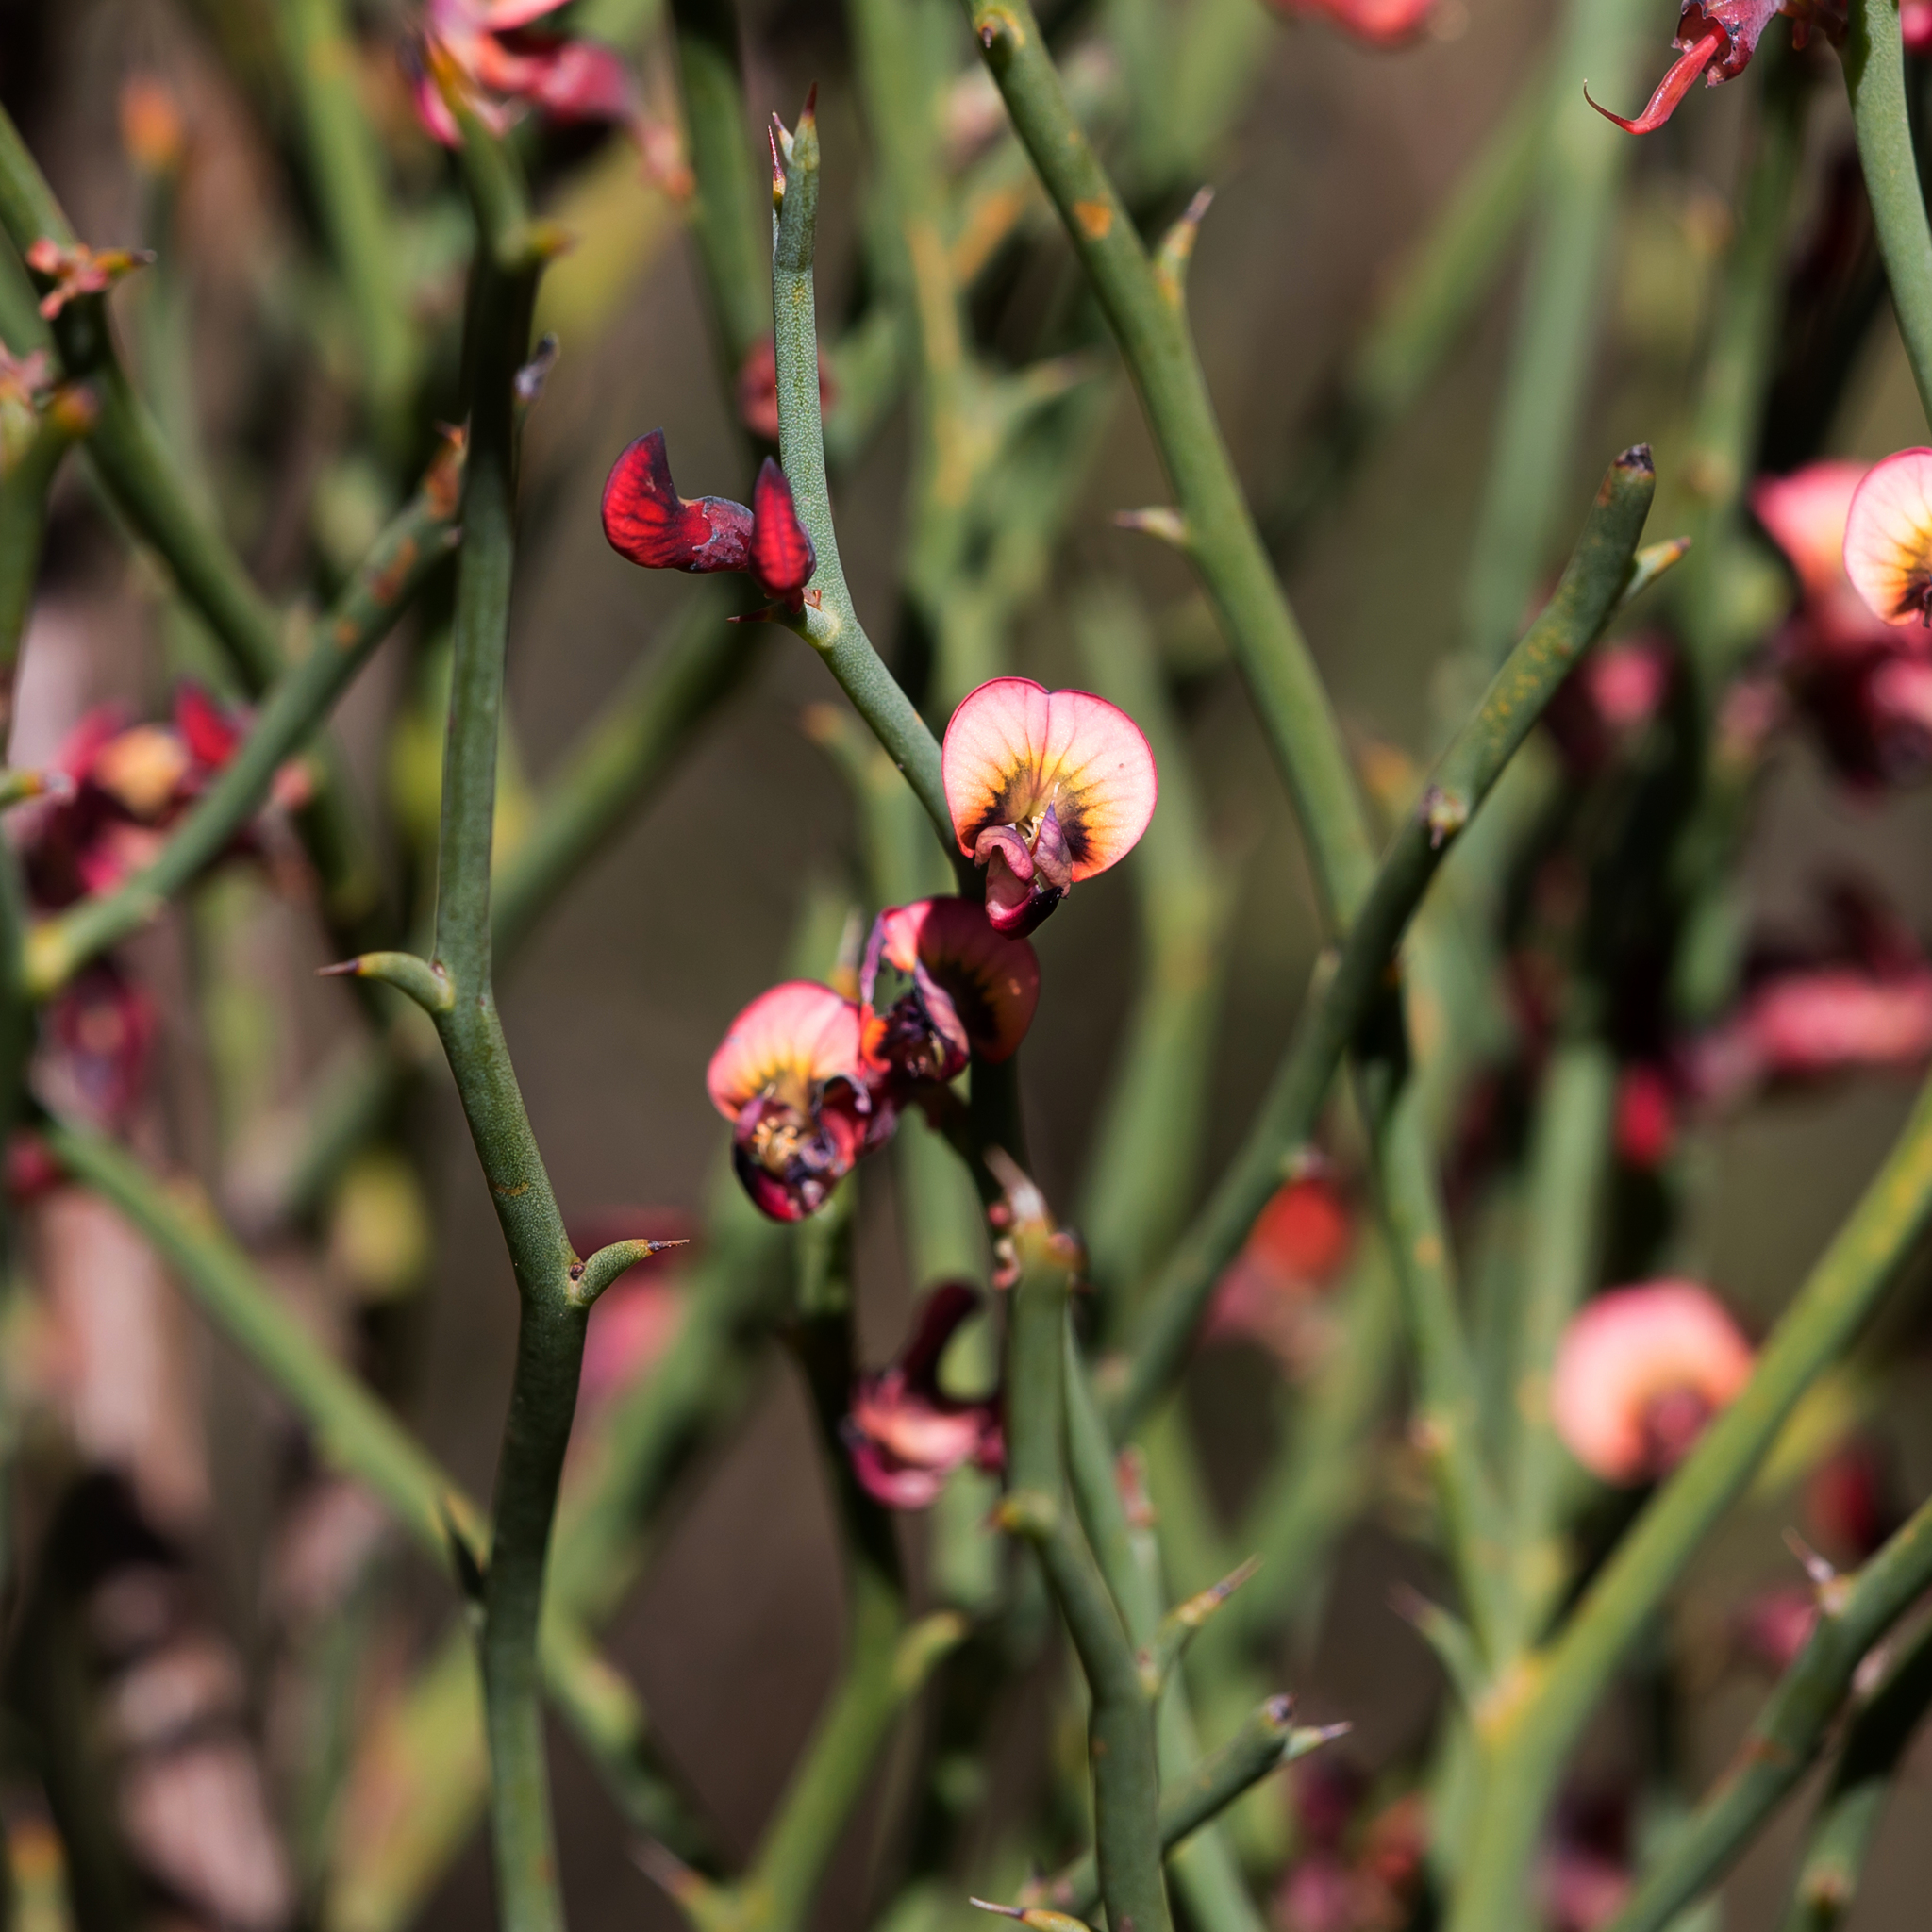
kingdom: Plantae
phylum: Tracheophyta
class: Magnoliopsida
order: Fabales
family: Fabaceae
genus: Daviesia
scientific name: Daviesia brevifolia
